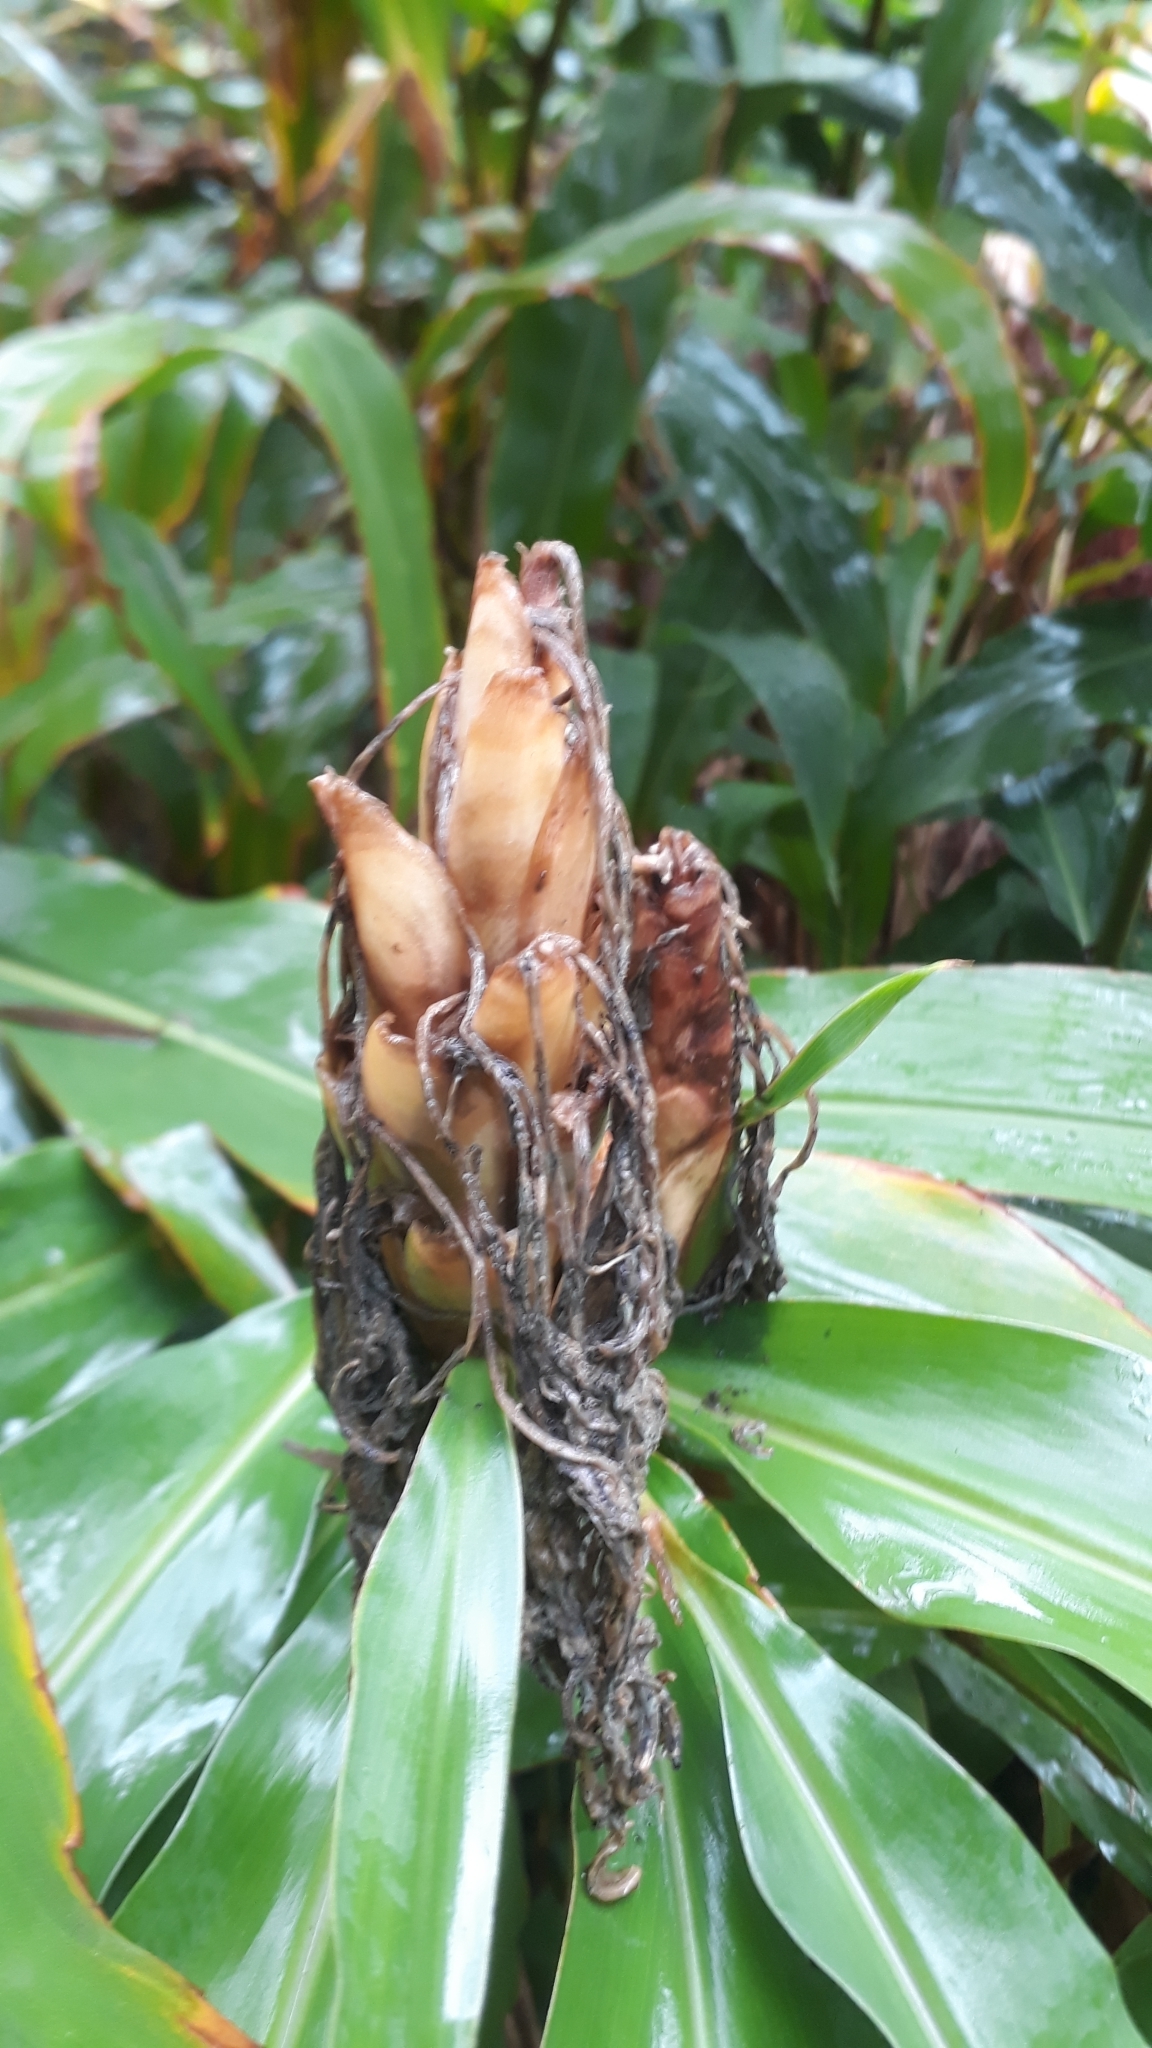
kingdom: Plantae
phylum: Tracheophyta
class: Liliopsida
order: Zingiberales
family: Zingiberaceae
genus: Hedychium
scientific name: Hedychium flavescens
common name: Yellow ginger
